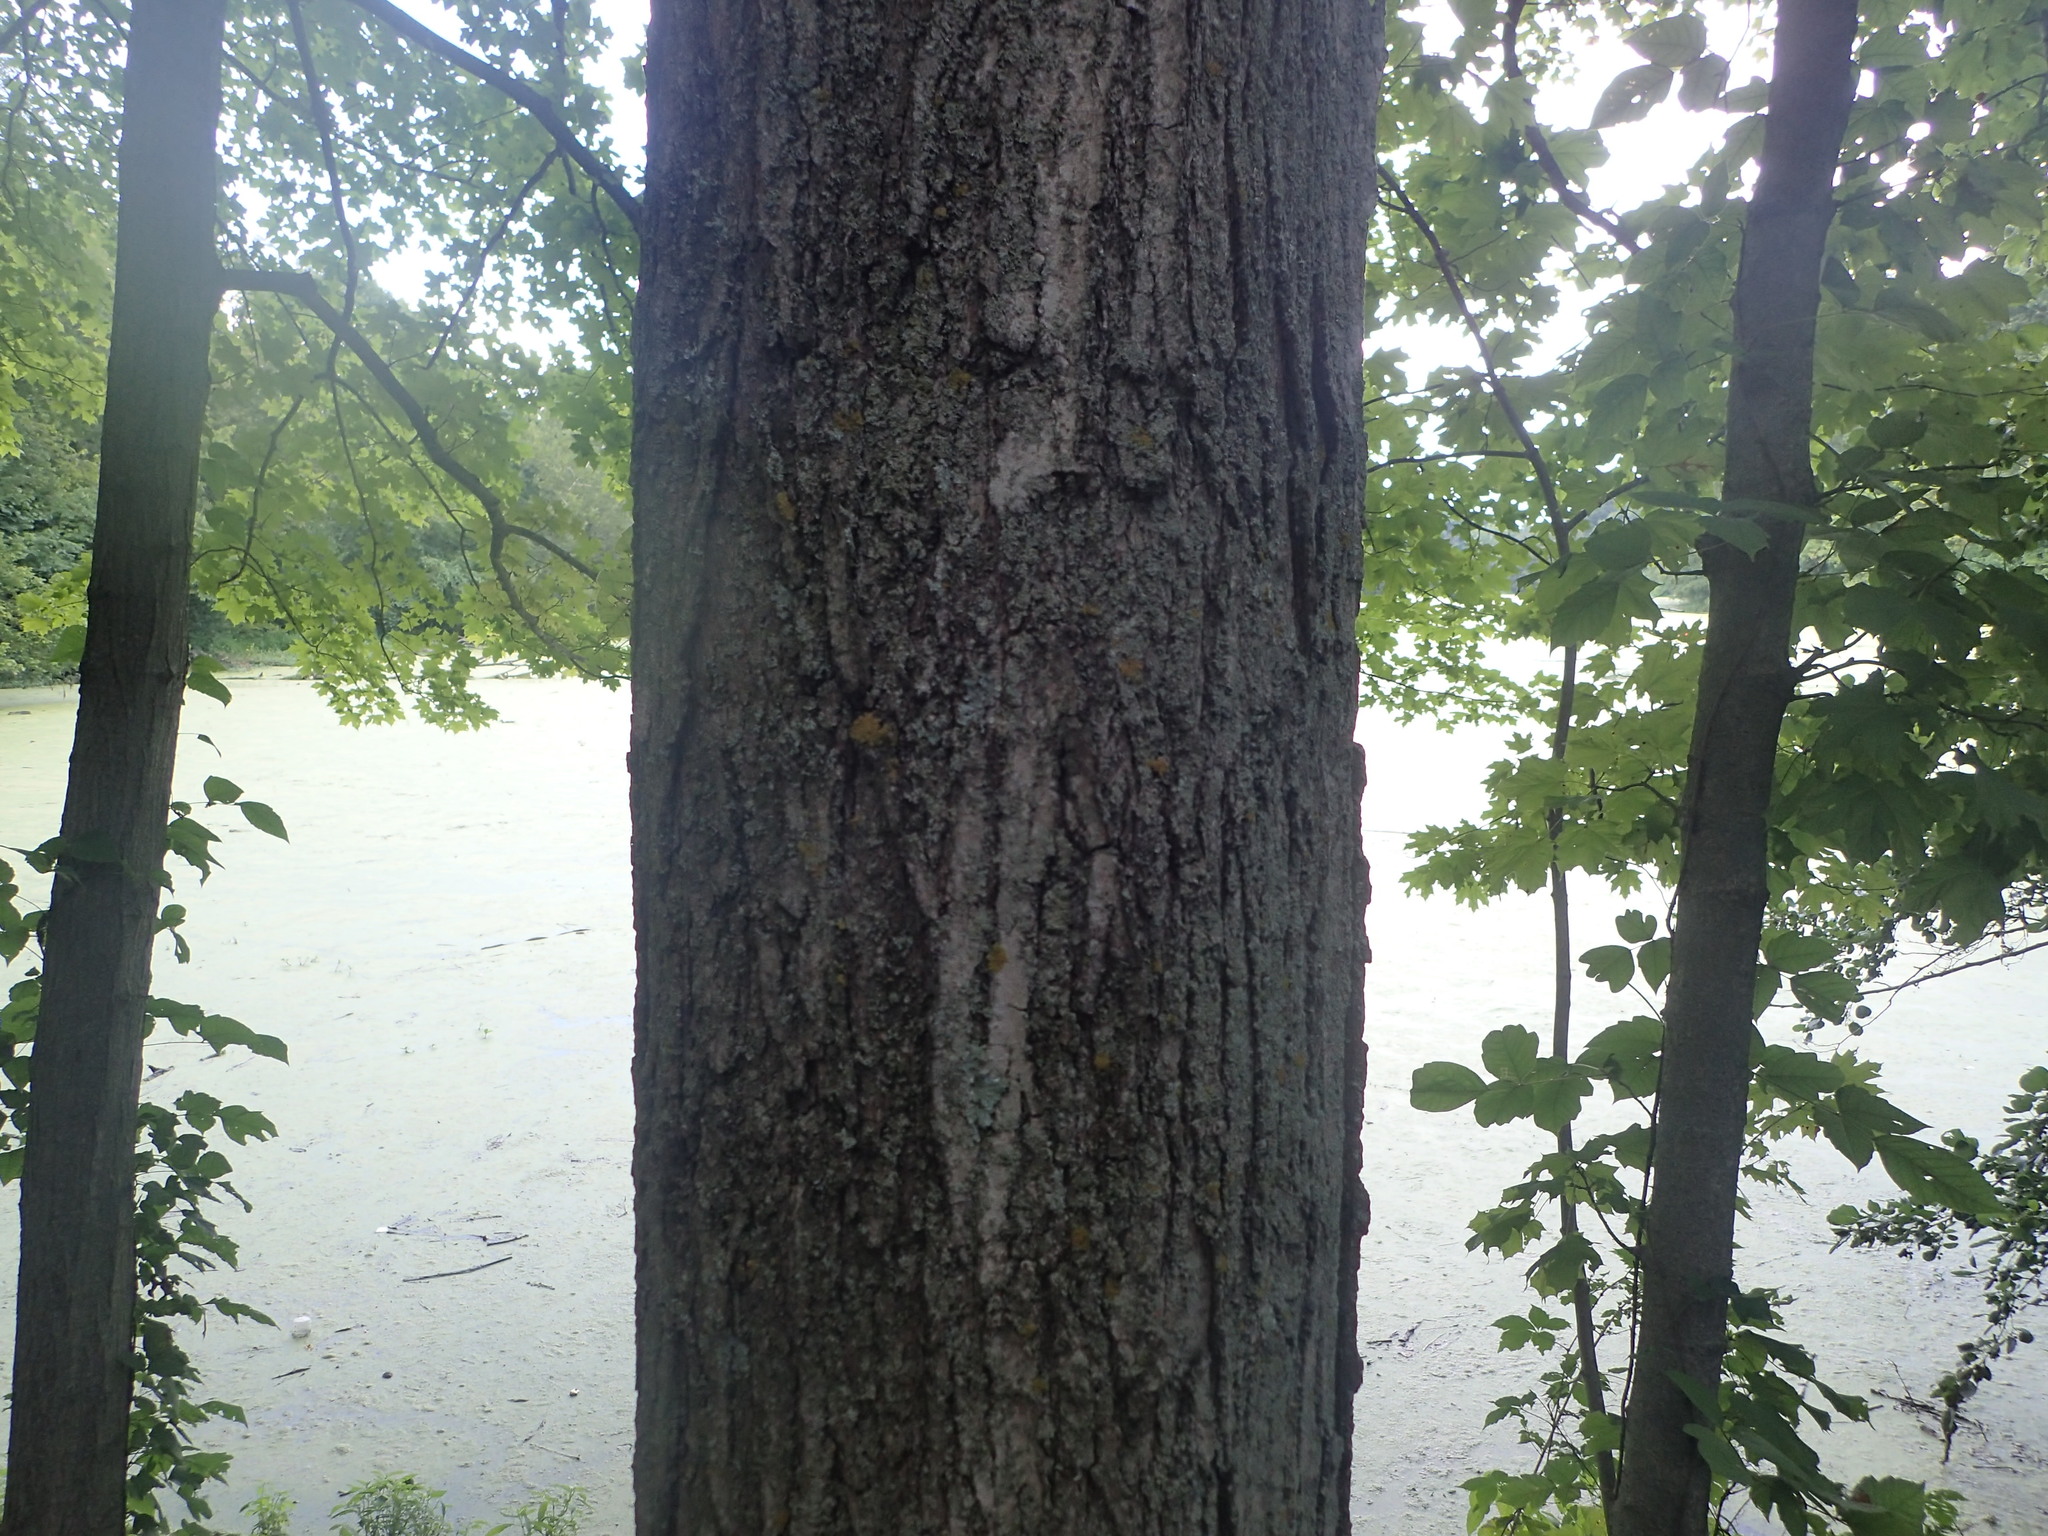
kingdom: Plantae
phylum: Tracheophyta
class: Magnoliopsida
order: Sapindales
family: Sapindaceae
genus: Acer
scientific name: Acer saccharum
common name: Sugar maple
